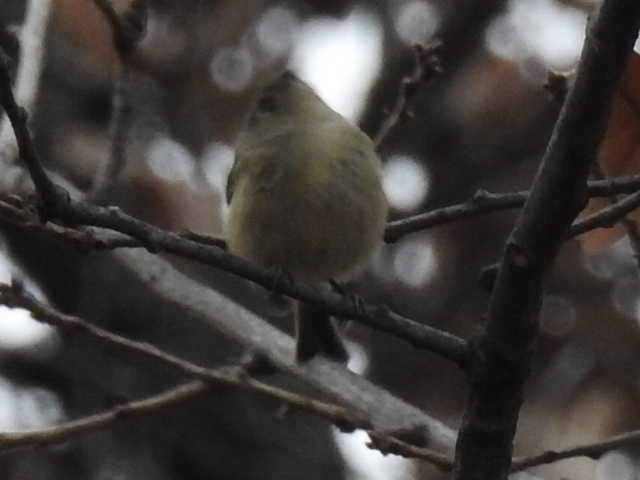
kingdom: Animalia
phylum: Chordata
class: Aves
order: Passeriformes
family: Regulidae
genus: Regulus
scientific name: Regulus calendula
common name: Ruby-crowned kinglet
